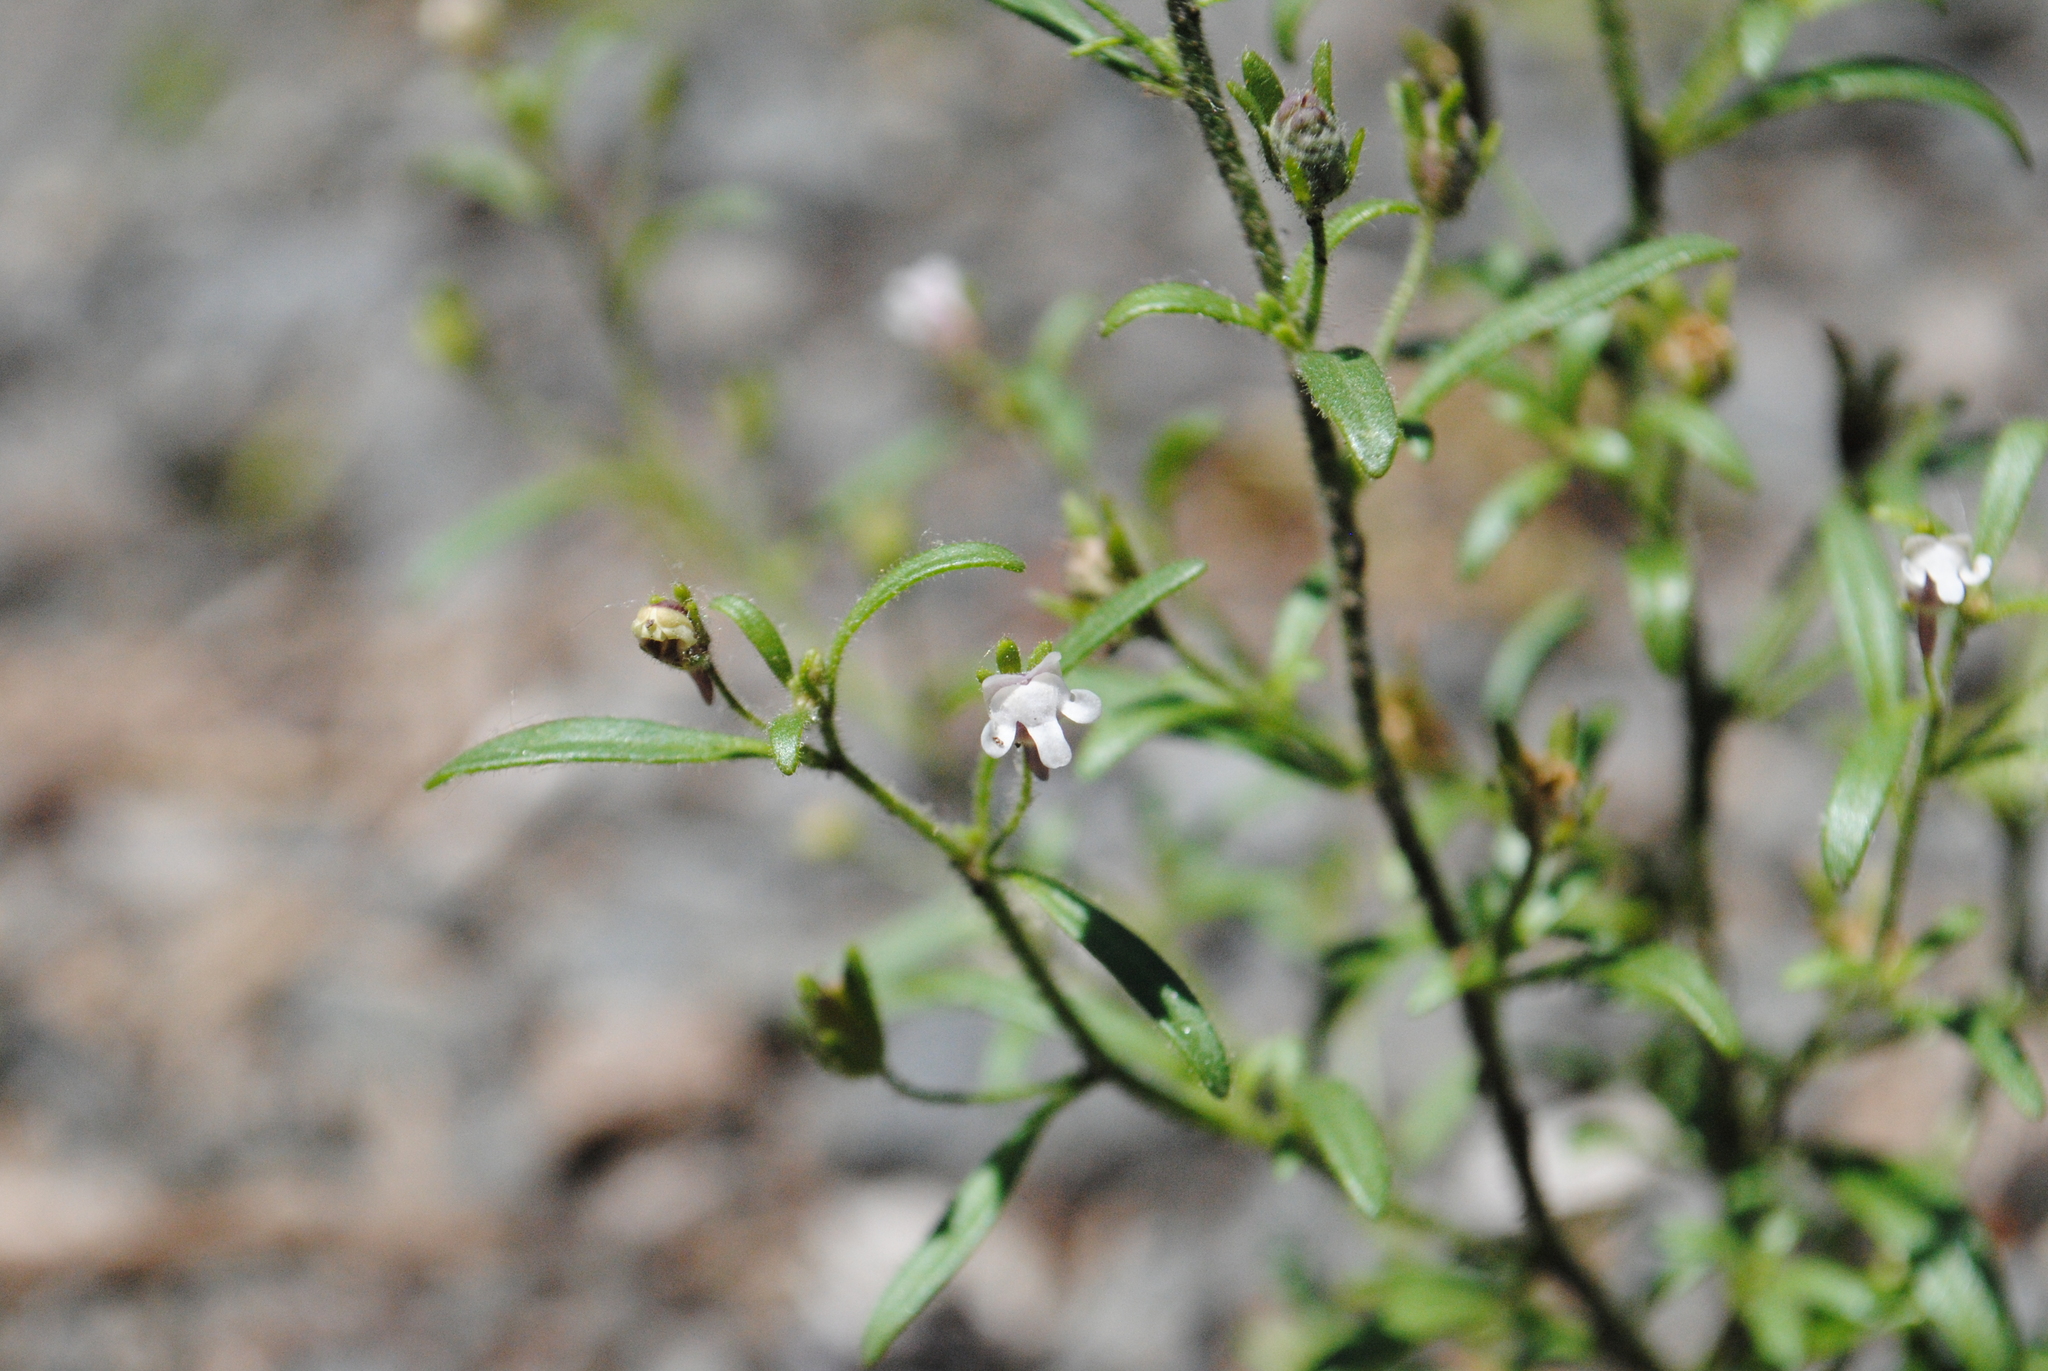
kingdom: Plantae
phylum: Tracheophyta
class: Magnoliopsida
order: Lamiales
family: Plantaginaceae
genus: Chaenorhinum
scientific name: Chaenorhinum minus
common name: Dwarf snapdragon
